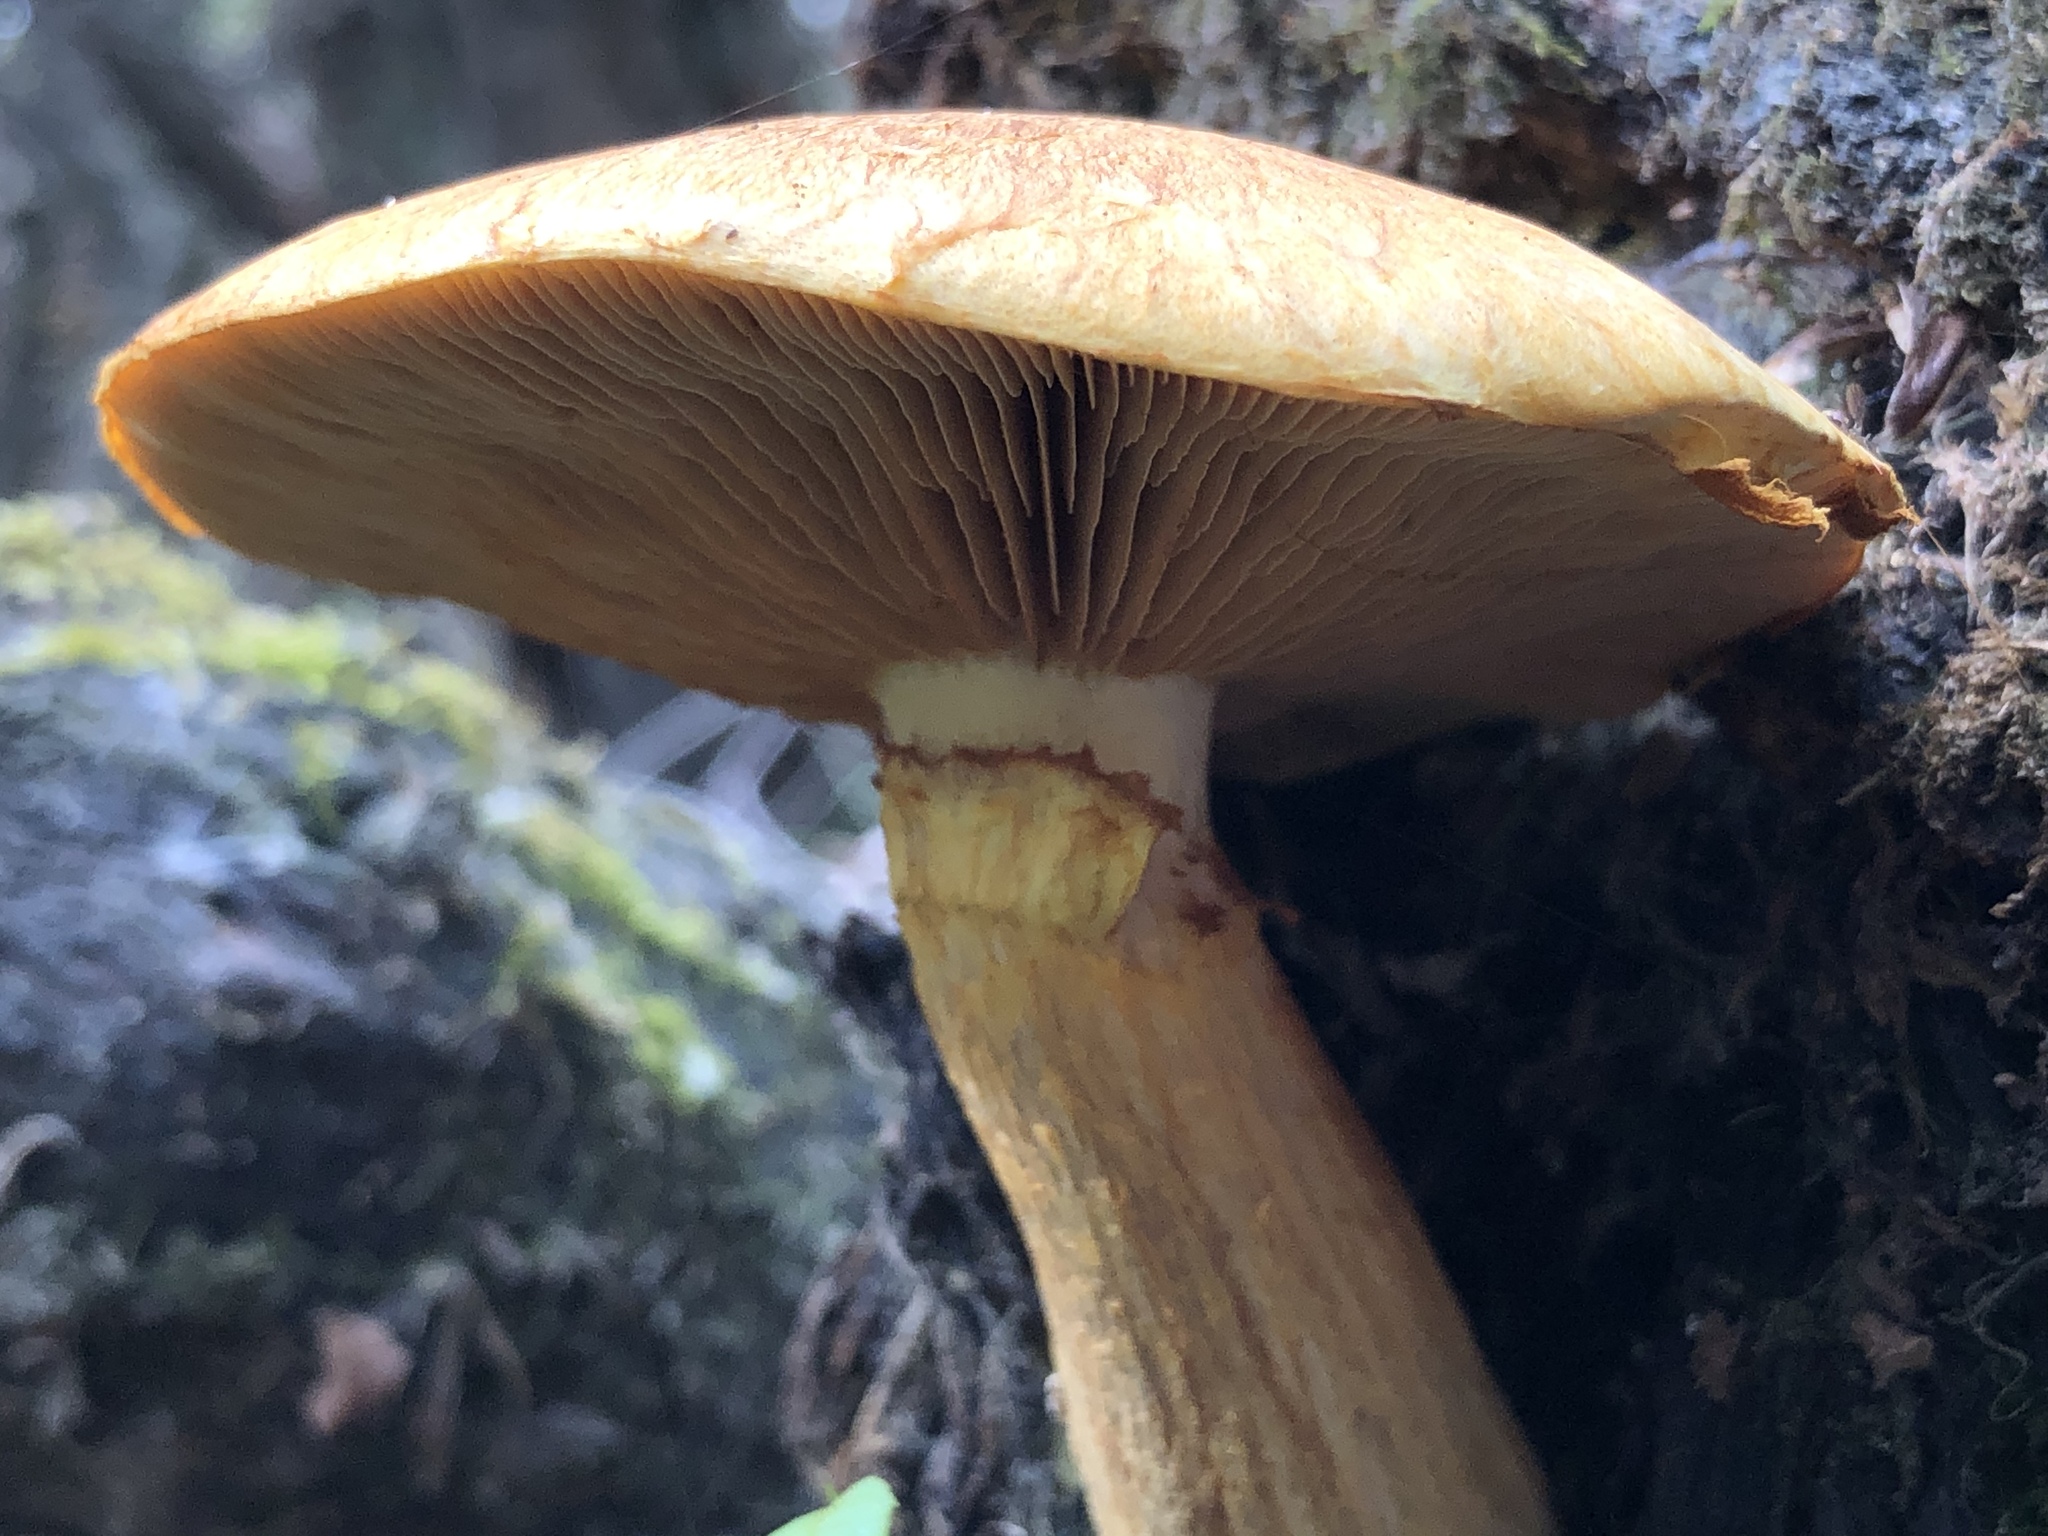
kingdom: Fungi
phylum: Basidiomycota
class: Agaricomycetes
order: Agaricales
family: Hymenogastraceae
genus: Gymnopilus
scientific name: Gymnopilus junonius
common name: Spectacular rustgill
